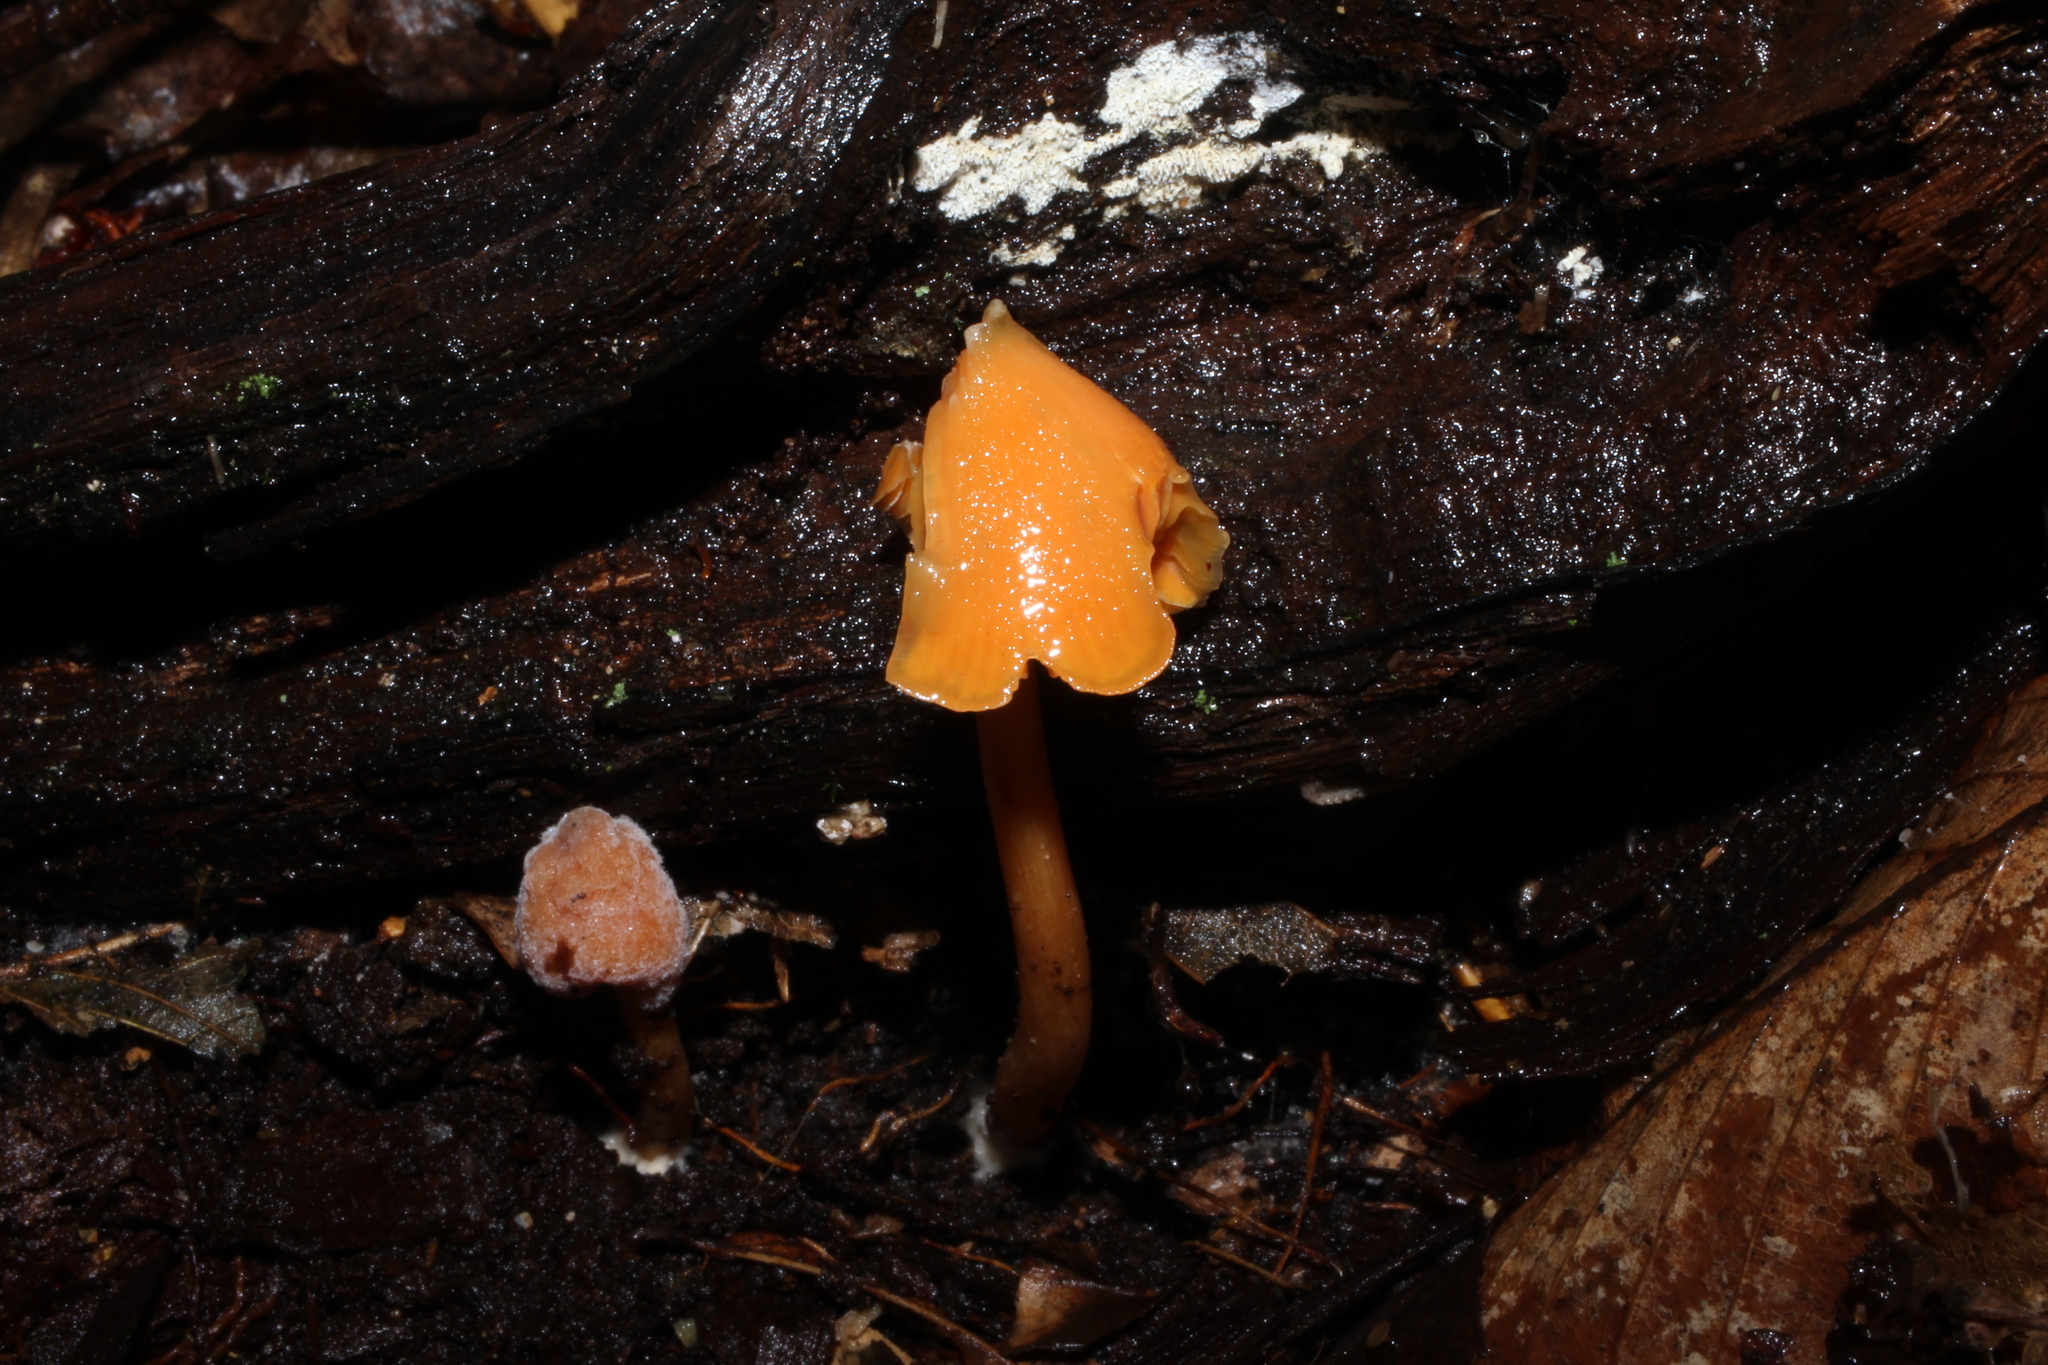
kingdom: Fungi
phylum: Basidiomycota
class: Agaricomycetes
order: Agaricales
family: Entolomataceae
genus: Entoloma
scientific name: Entoloma quadratum
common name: Salmon pinkgill
